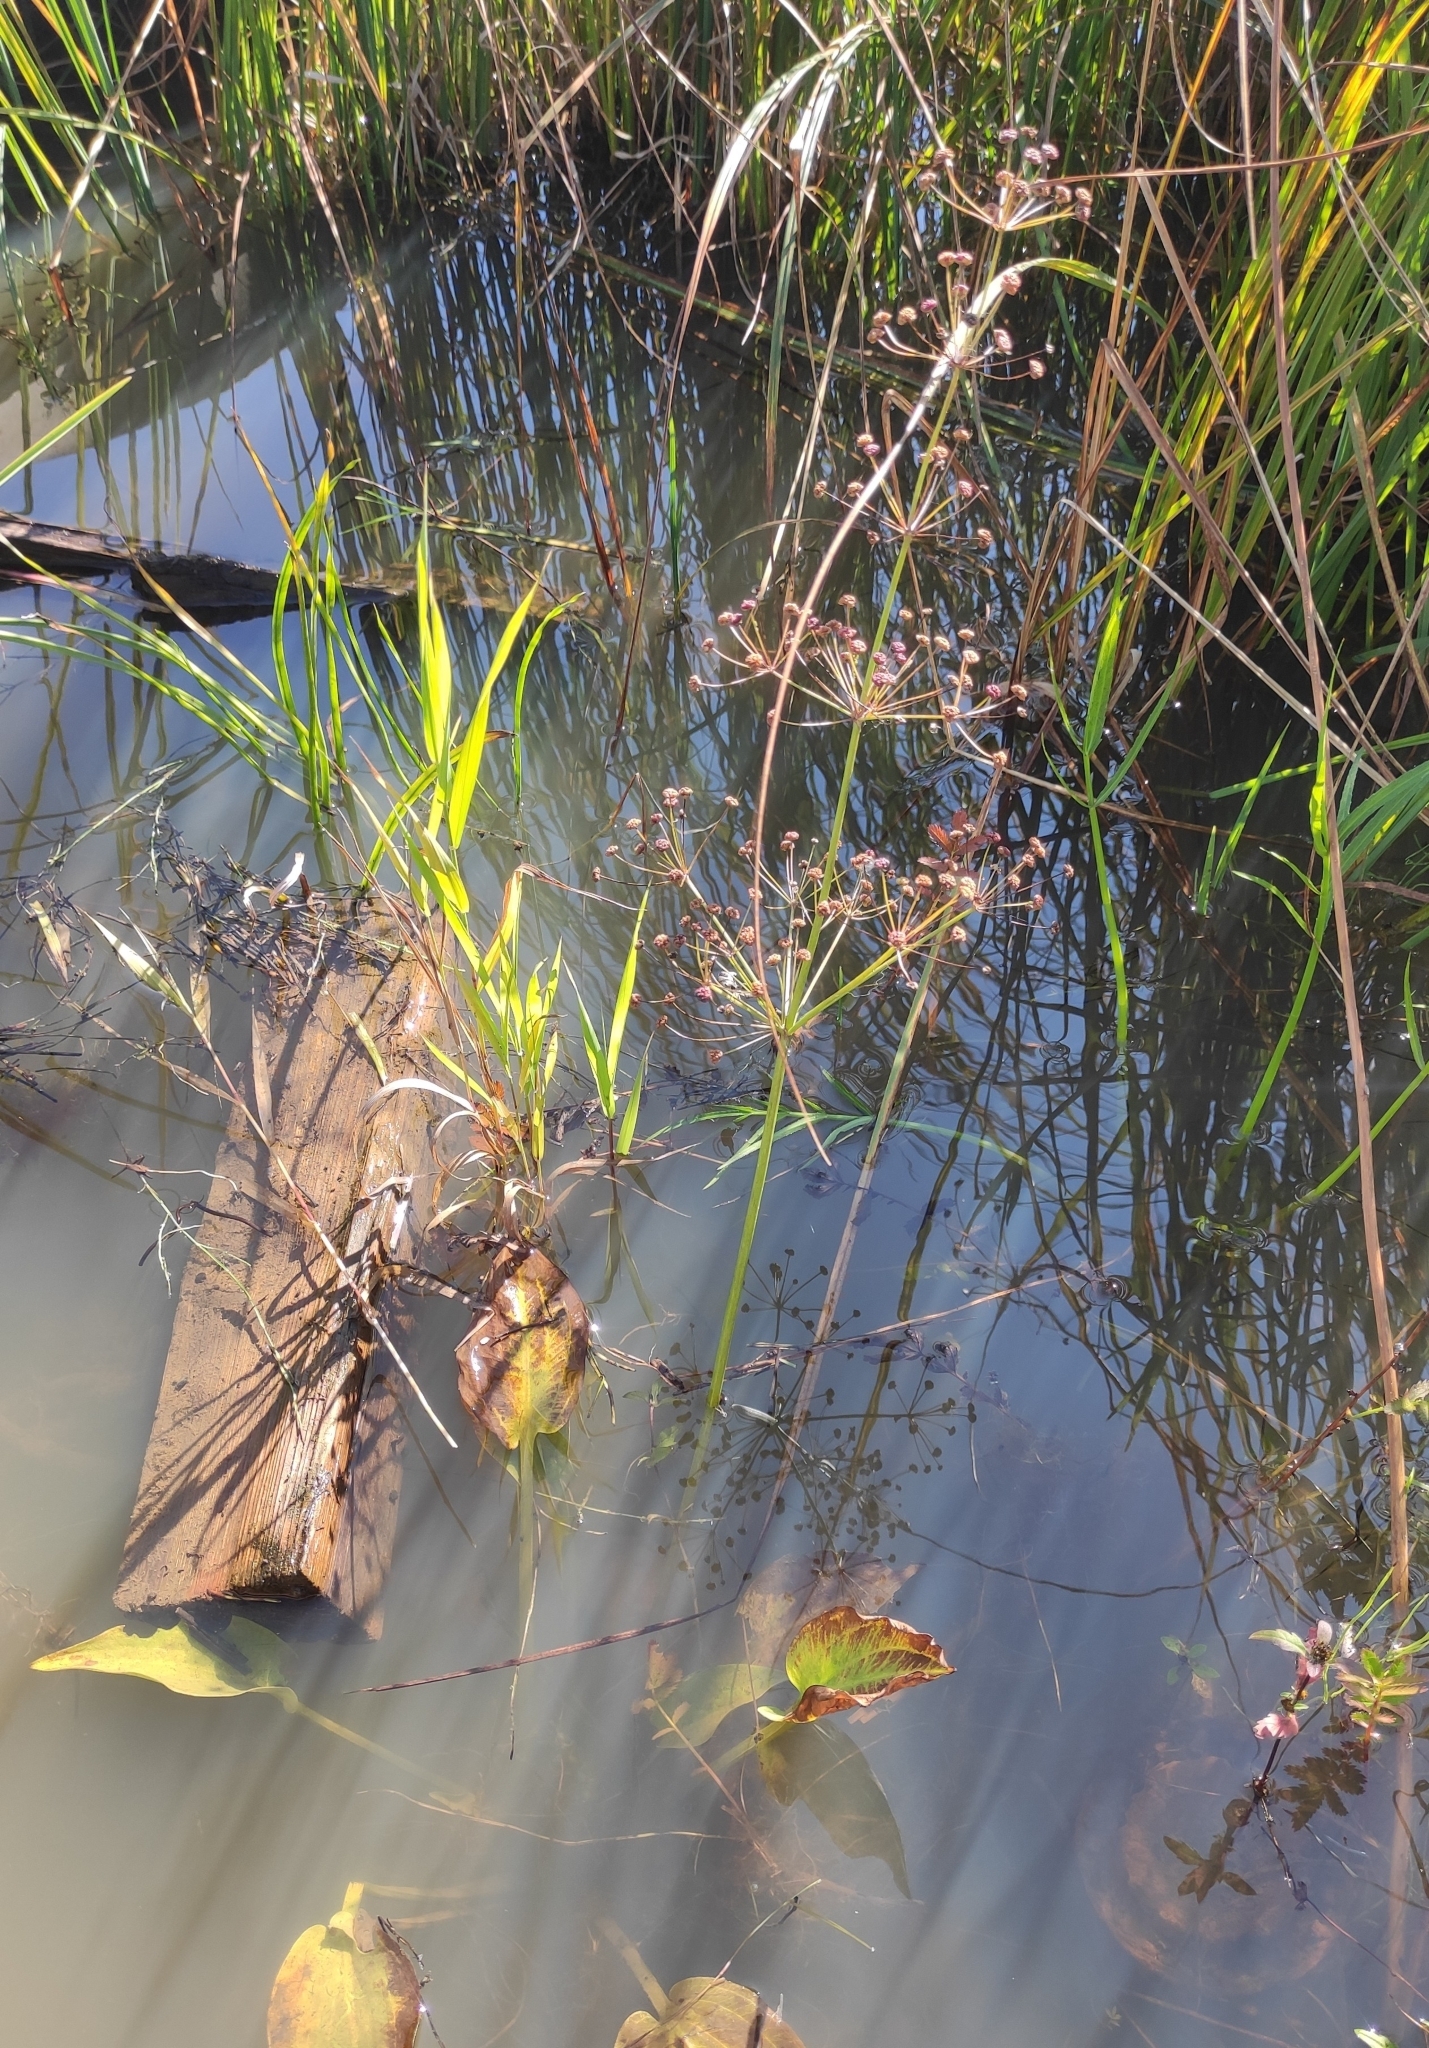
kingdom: Plantae
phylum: Tracheophyta
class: Liliopsida
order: Alismatales
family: Alismataceae
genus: Alisma
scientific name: Alisma plantago-aquatica
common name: Water-plantain
